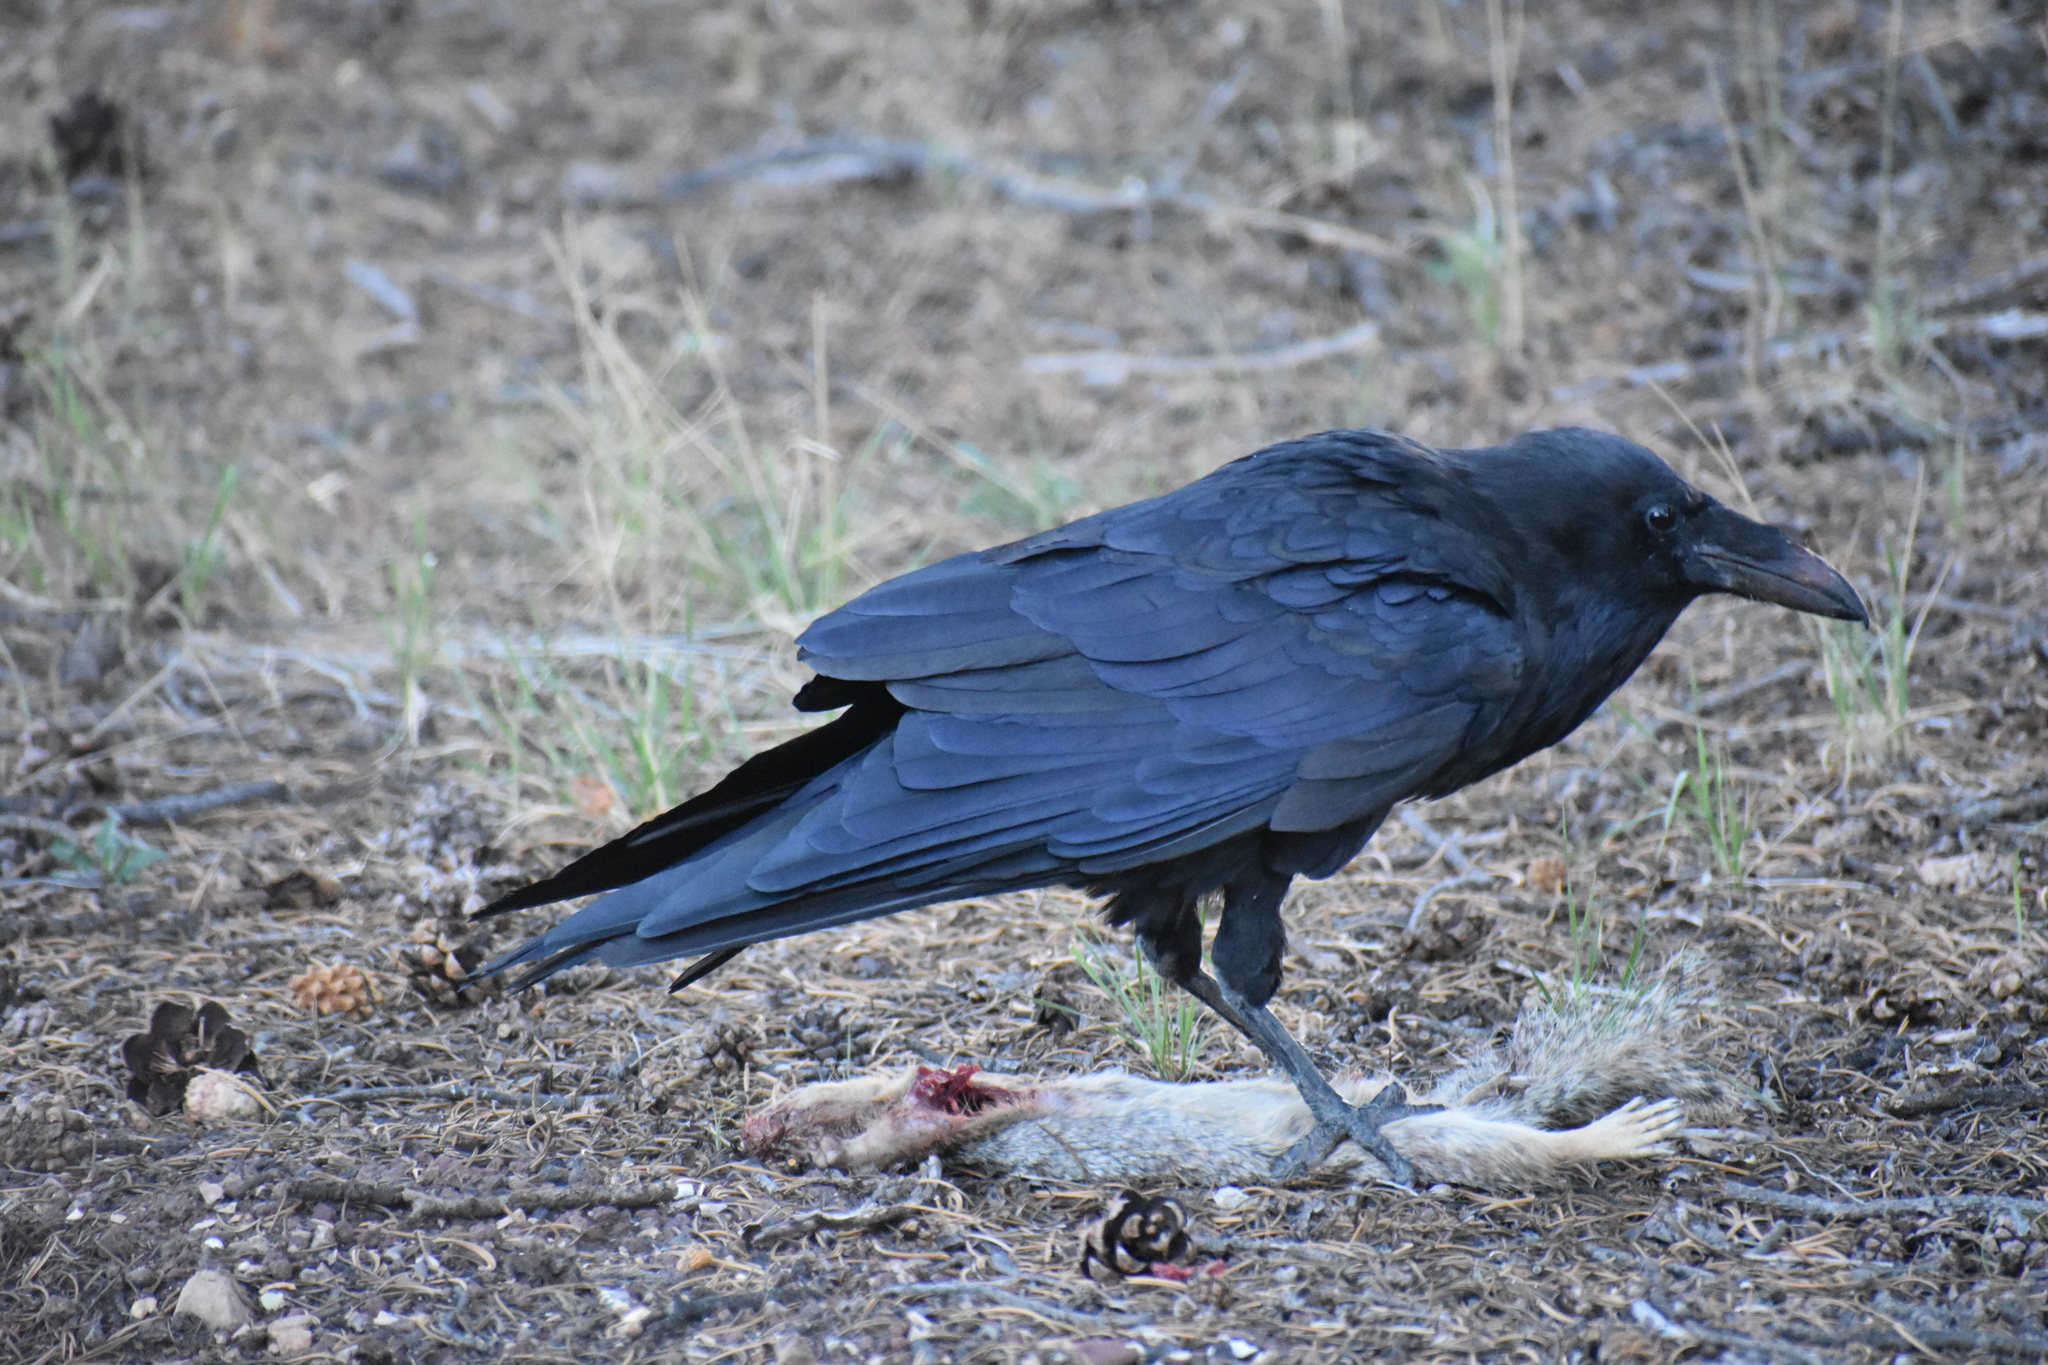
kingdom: Animalia
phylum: Chordata
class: Aves
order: Passeriformes
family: Corvidae
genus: Corvus
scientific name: Corvus corax
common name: Common raven
